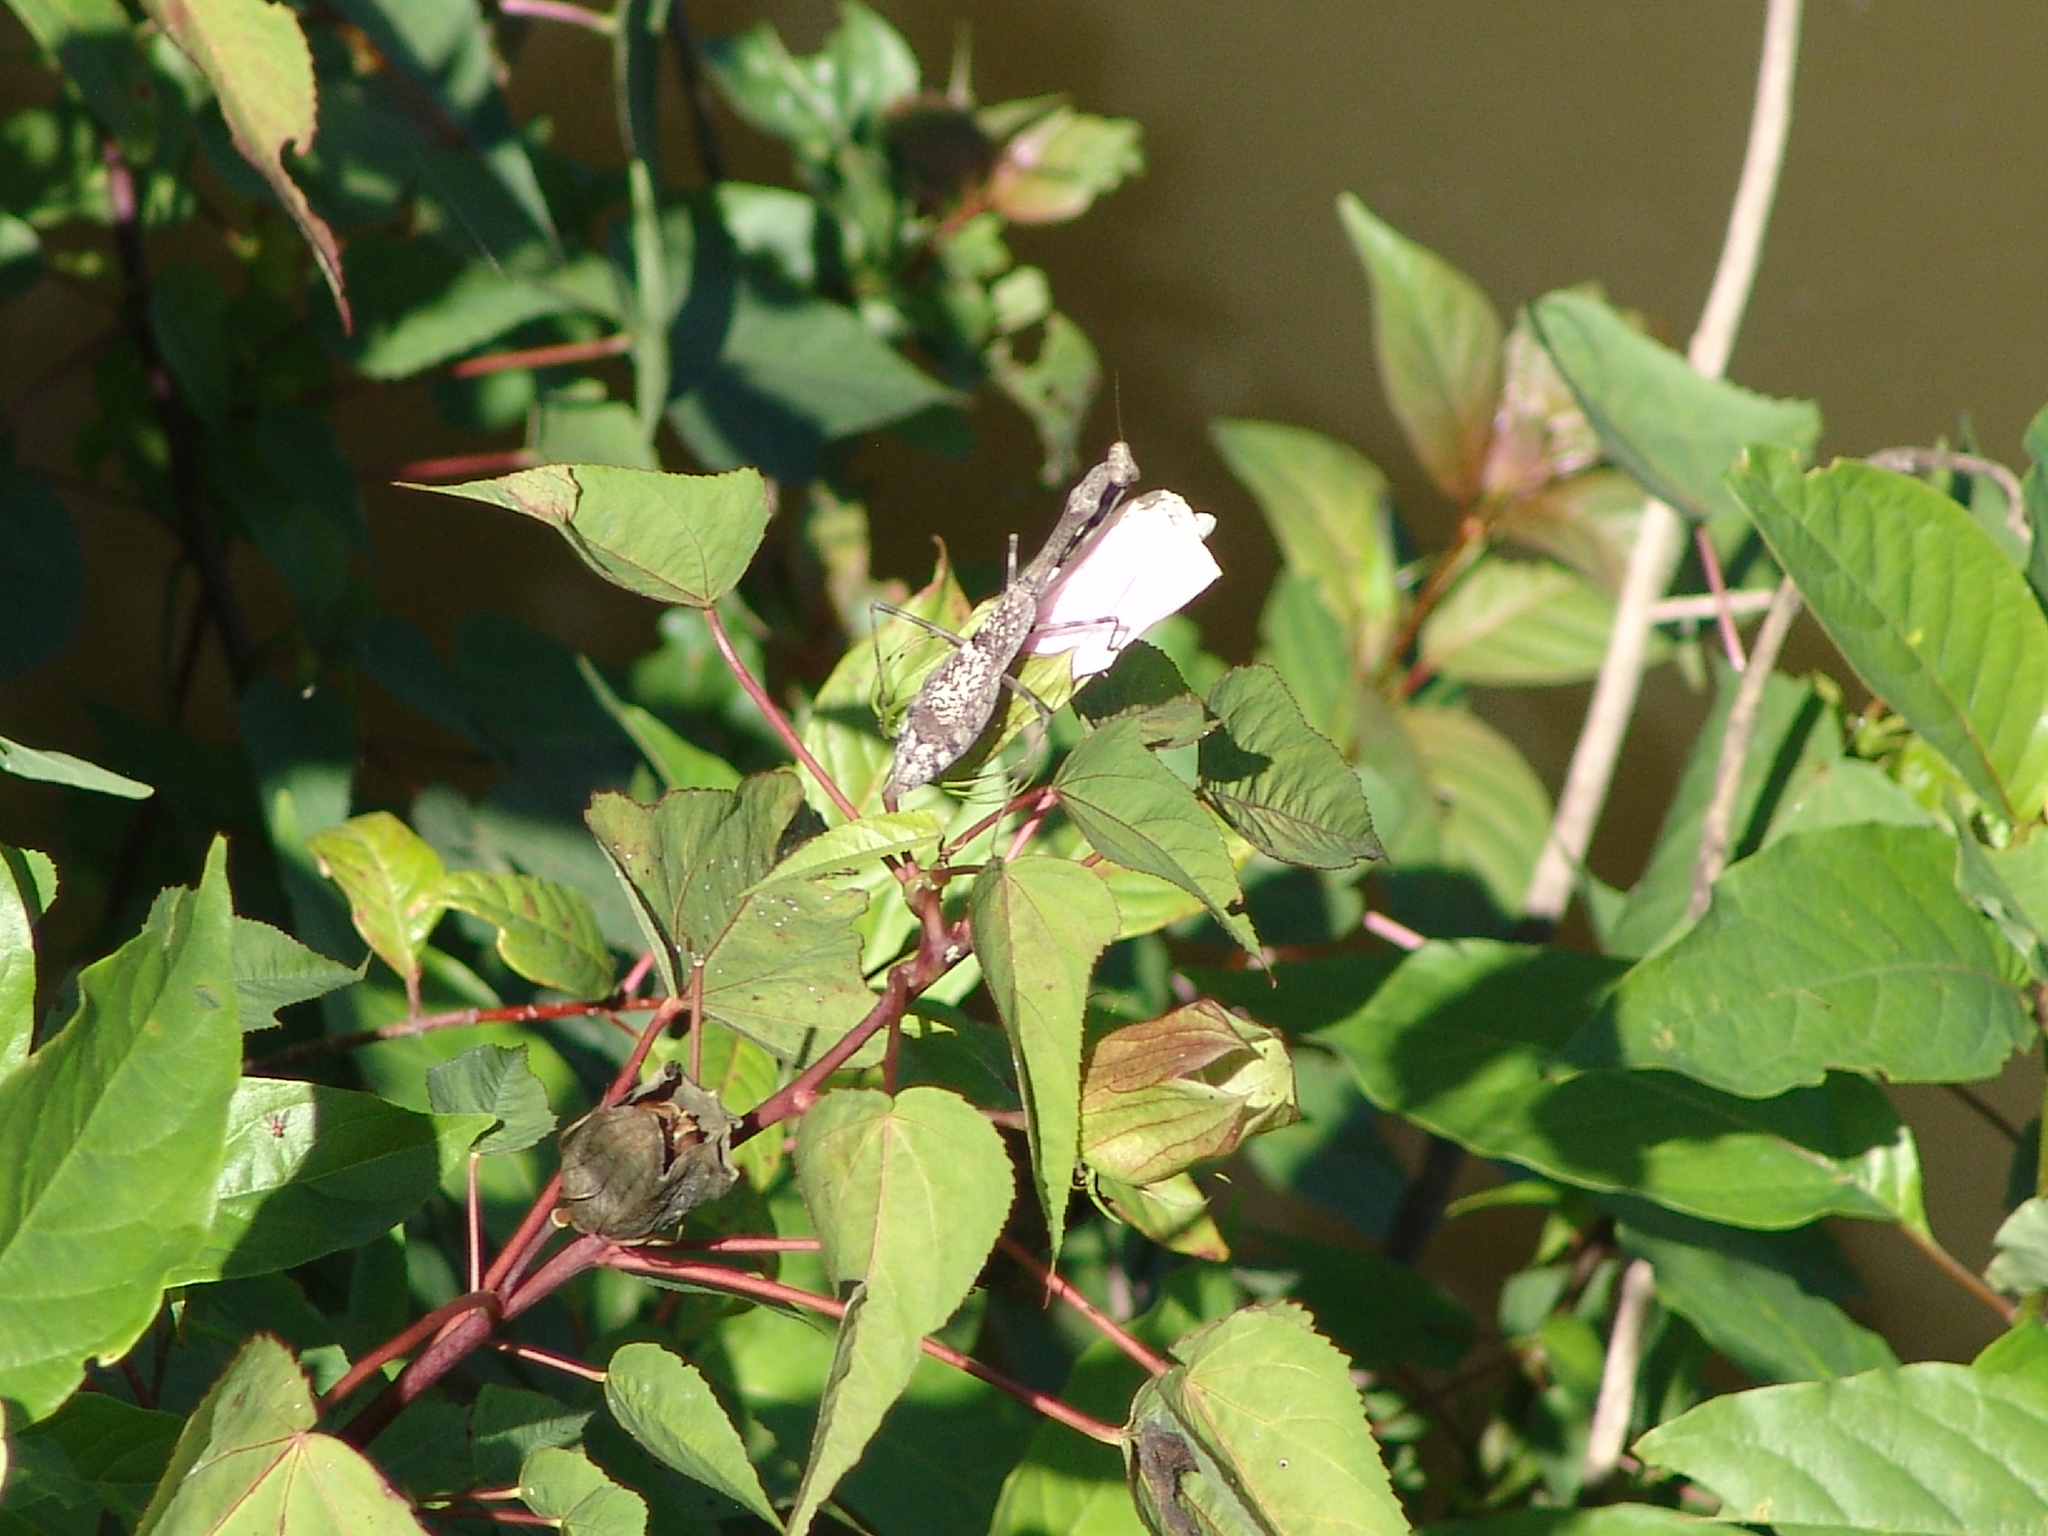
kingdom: Animalia
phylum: Arthropoda
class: Insecta
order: Mantodea
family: Mantidae
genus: Stagmomantis
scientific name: Stagmomantis carolina
